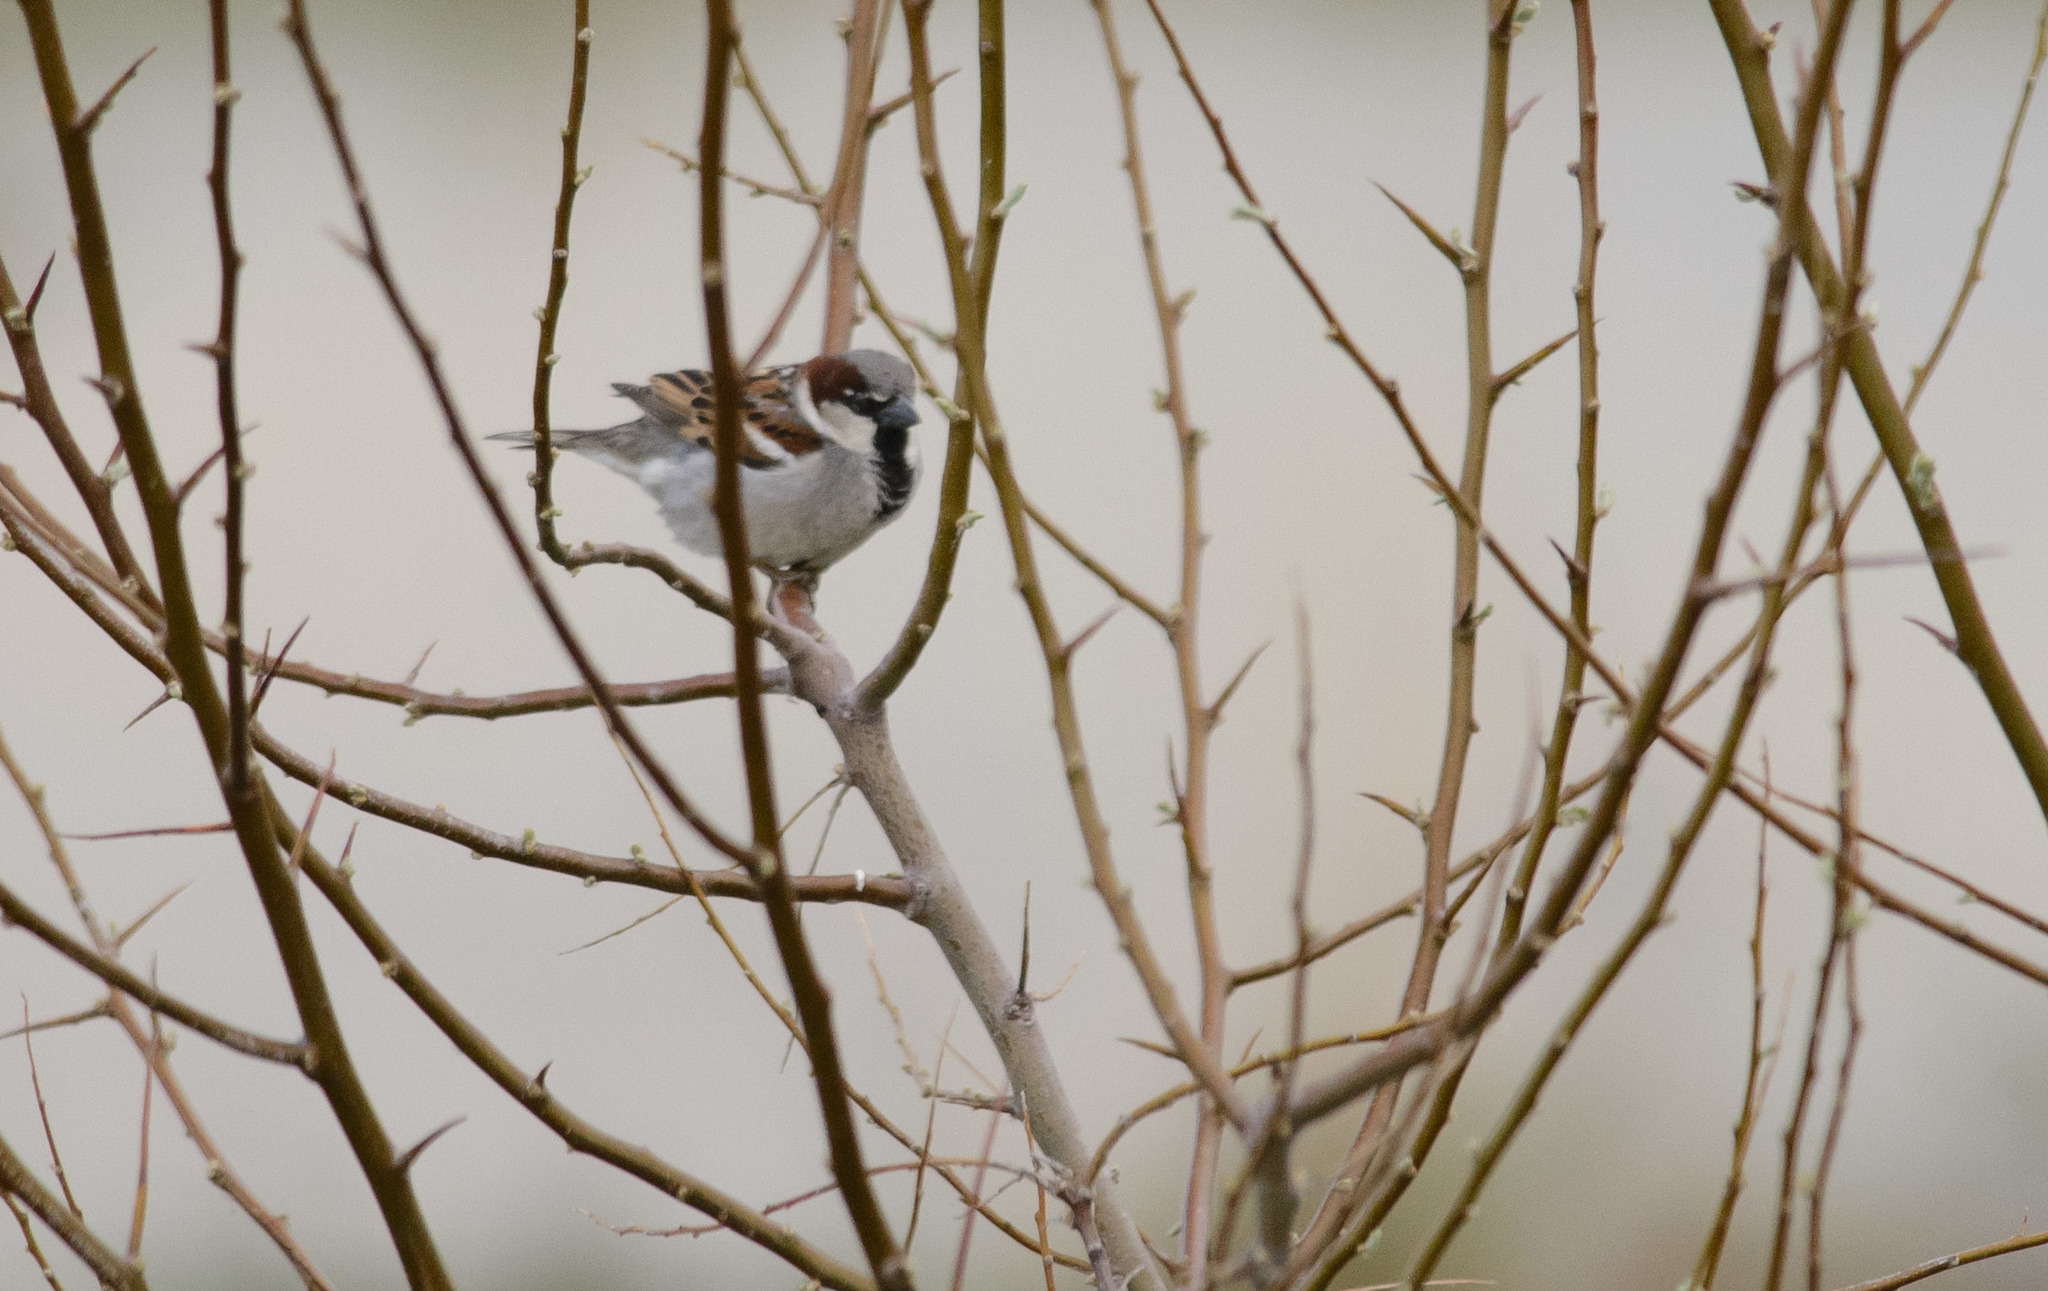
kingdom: Animalia
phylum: Chordata
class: Aves
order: Passeriformes
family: Passeridae
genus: Passer
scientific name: Passer domesticus
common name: House sparrow
